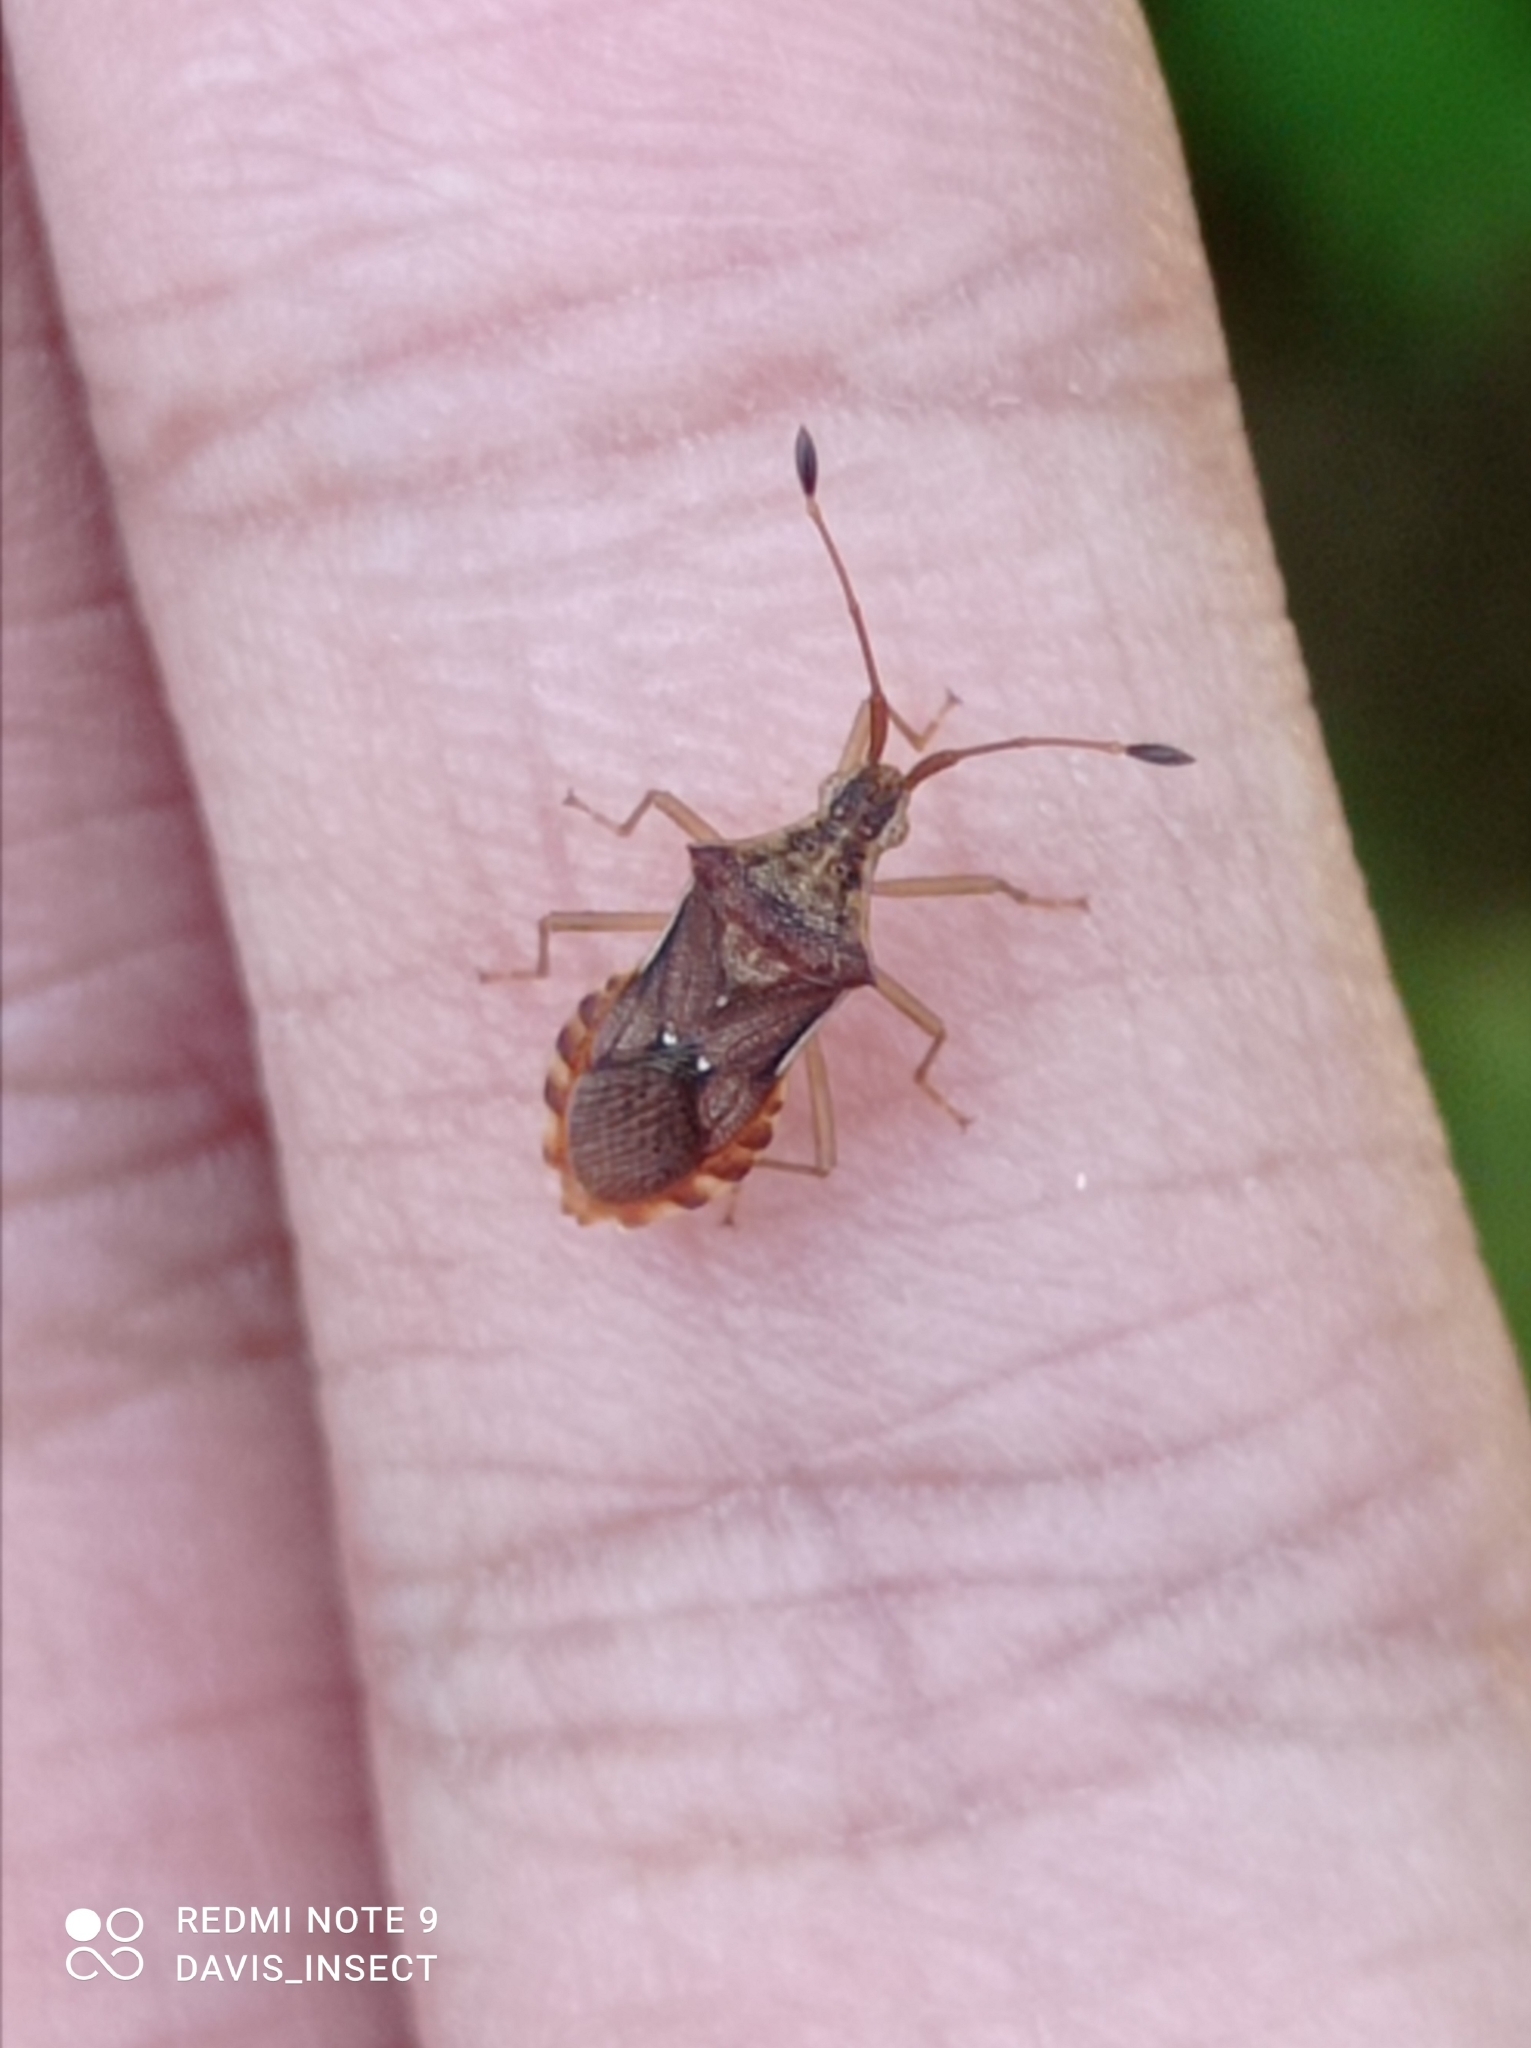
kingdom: Animalia
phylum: Arthropoda
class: Insecta
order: Hemiptera
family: Coreidae
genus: Cletus
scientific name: Cletus capitulatus
